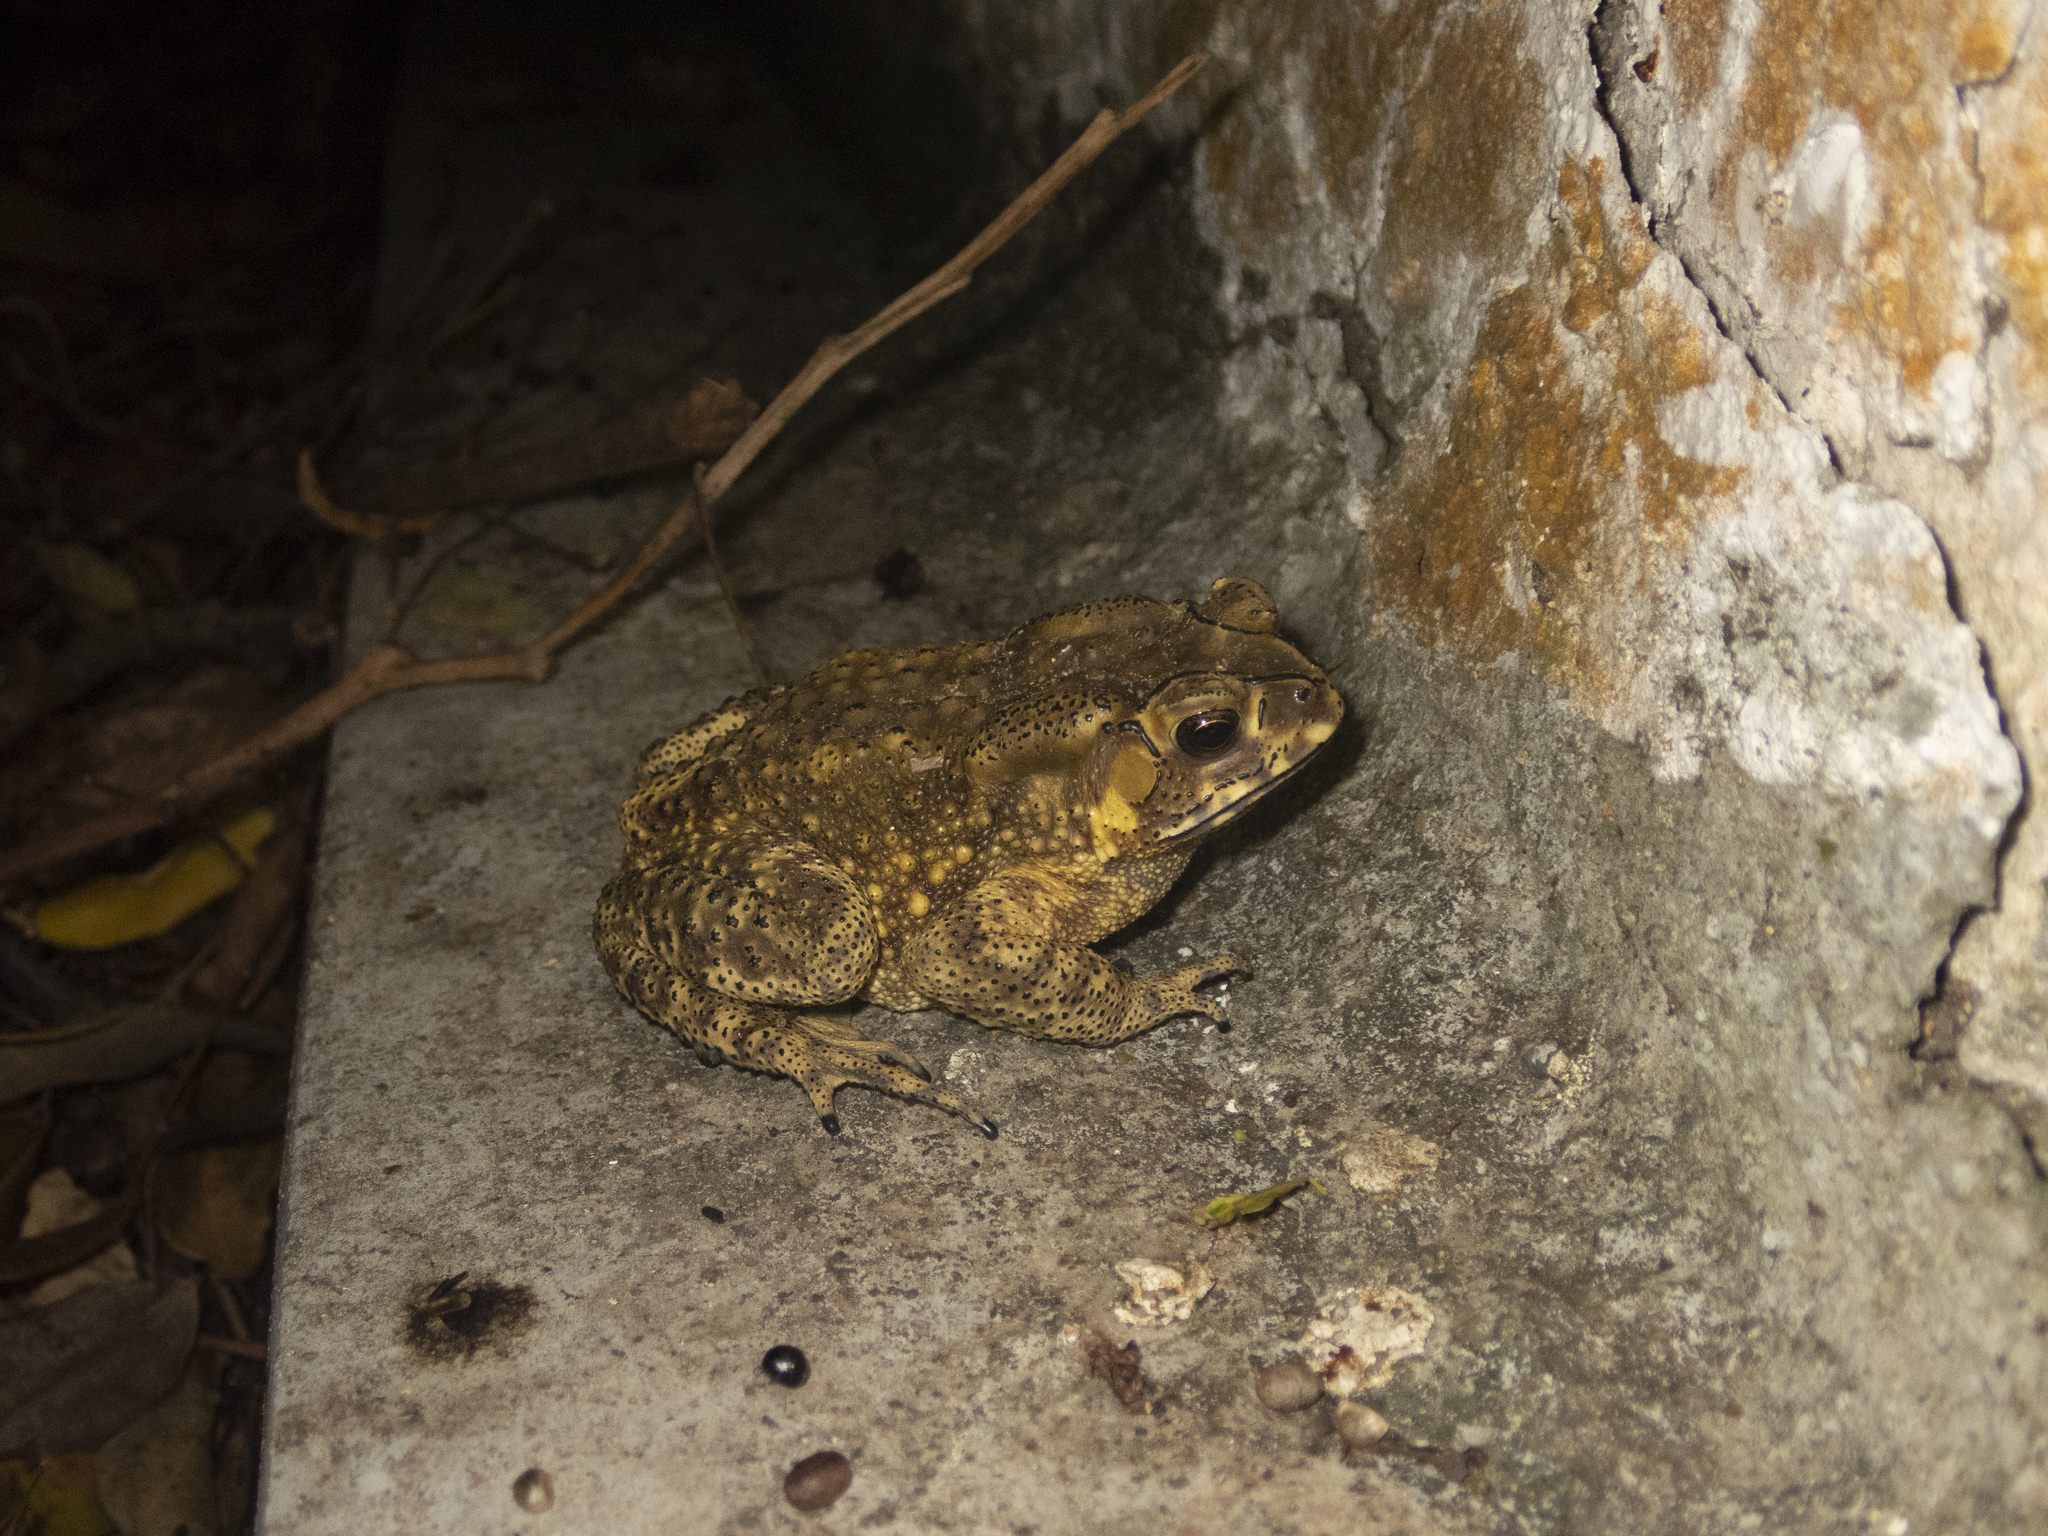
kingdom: Animalia
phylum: Chordata
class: Amphibia
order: Anura
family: Bufonidae
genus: Duttaphrynus
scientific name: Duttaphrynus melanostictus
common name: Common sunda toad
